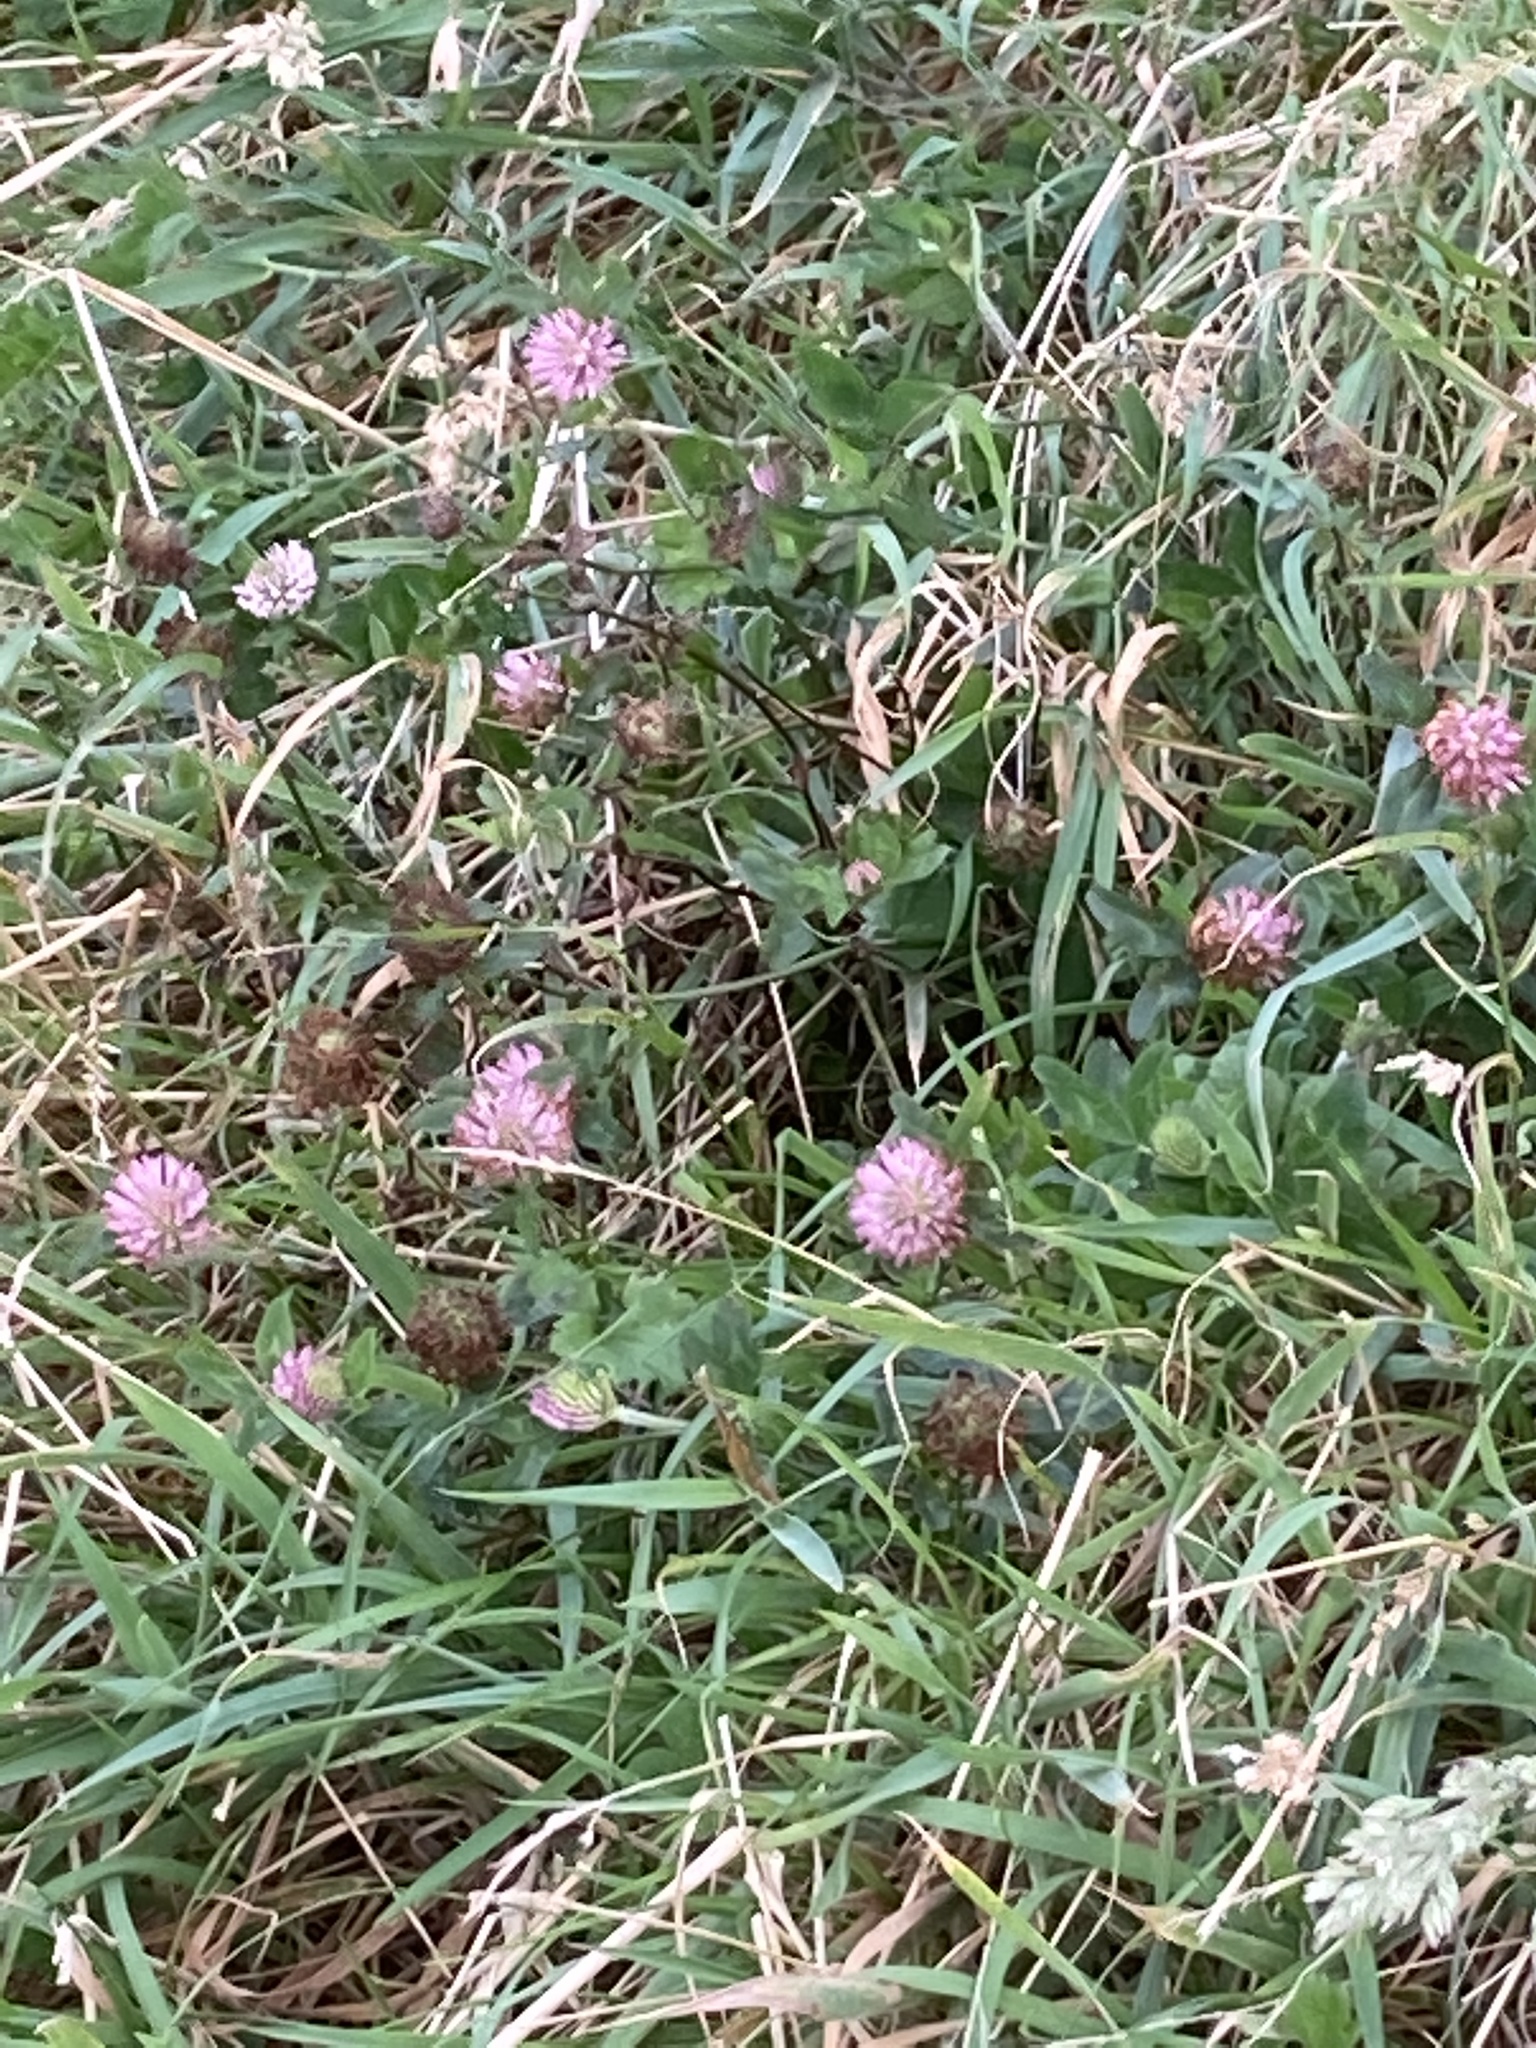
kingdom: Plantae
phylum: Tracheophyta
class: Magnoliopsida
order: Fabales
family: Fabaceae
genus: Trifolium
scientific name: Trifolium pratense
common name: Red clover
